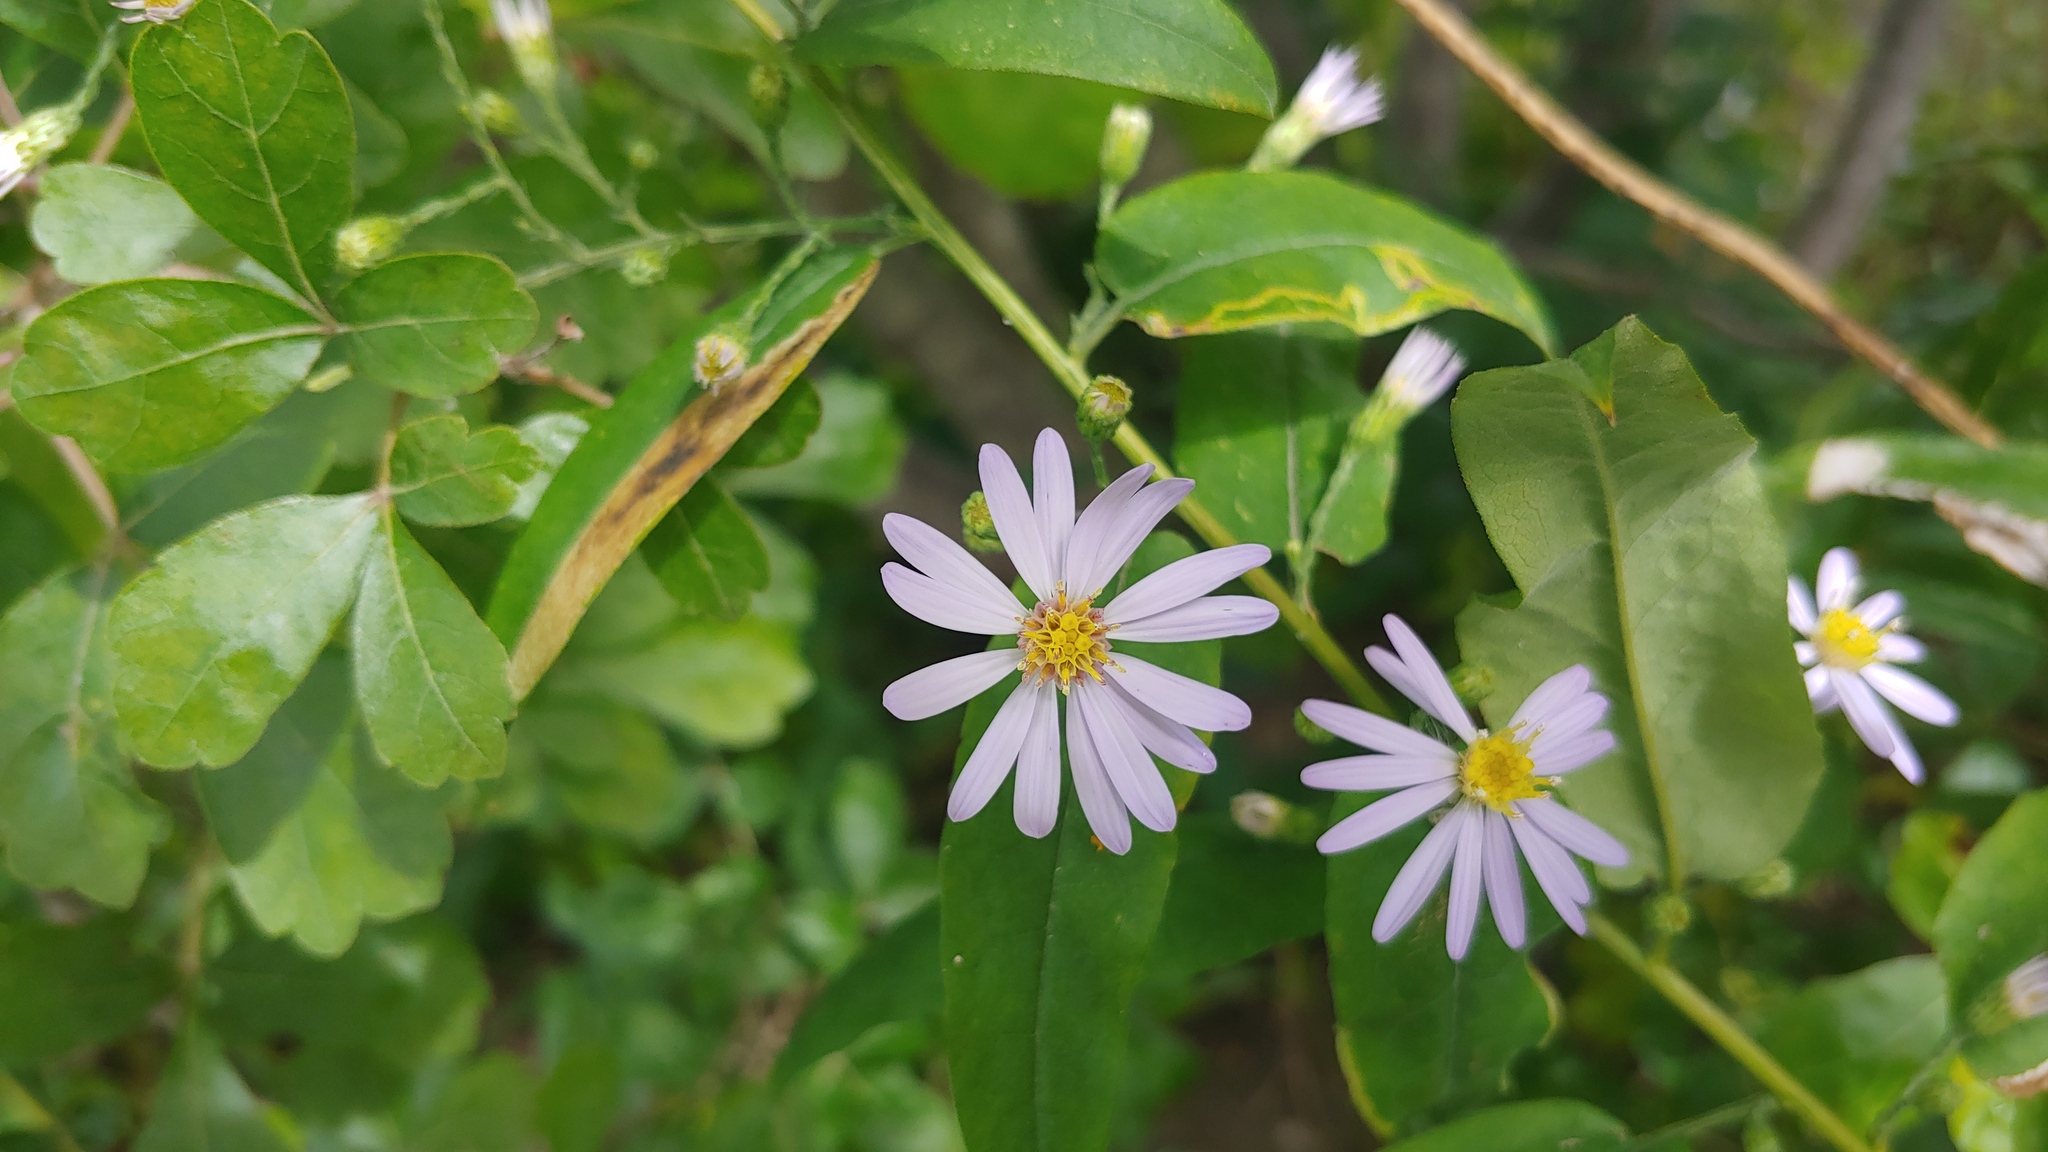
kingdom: Plantae
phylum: Tracheophyta
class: Magnoliopsida
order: Asterales
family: Asteraceae
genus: Symphyotrichum
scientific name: Symphyotrichum shortii
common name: Short's aster
